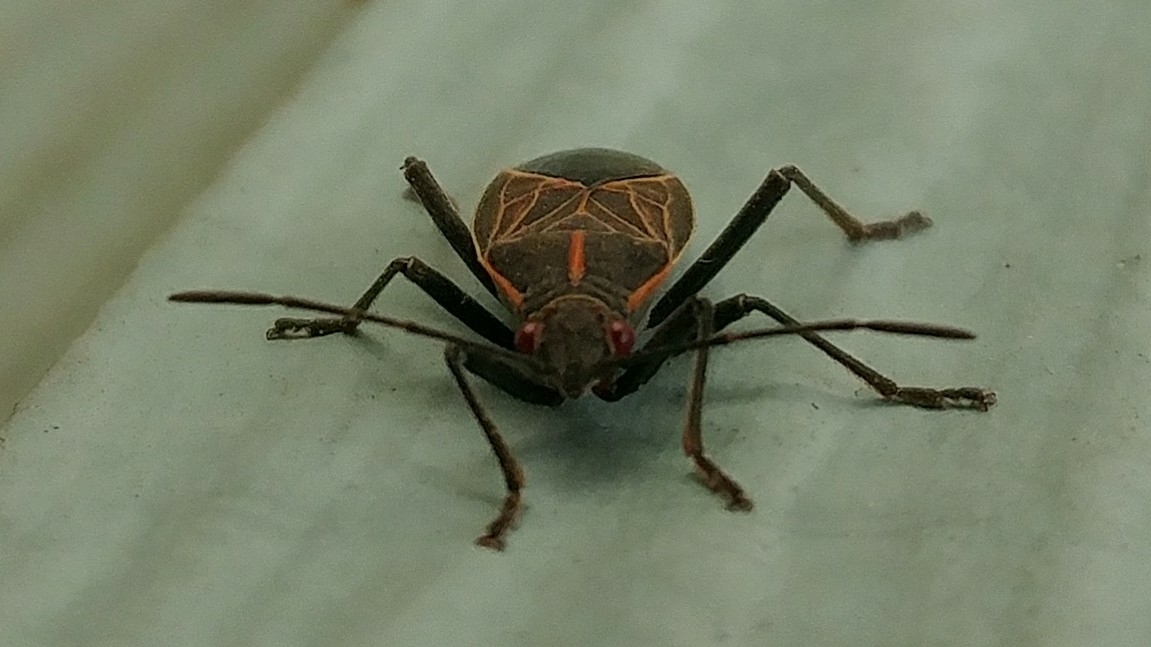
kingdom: Animalia
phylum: Arthropoda
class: Insecta
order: Hemiptera
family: Rhopalidae
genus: Boisea
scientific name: Boisea rubrolineata
